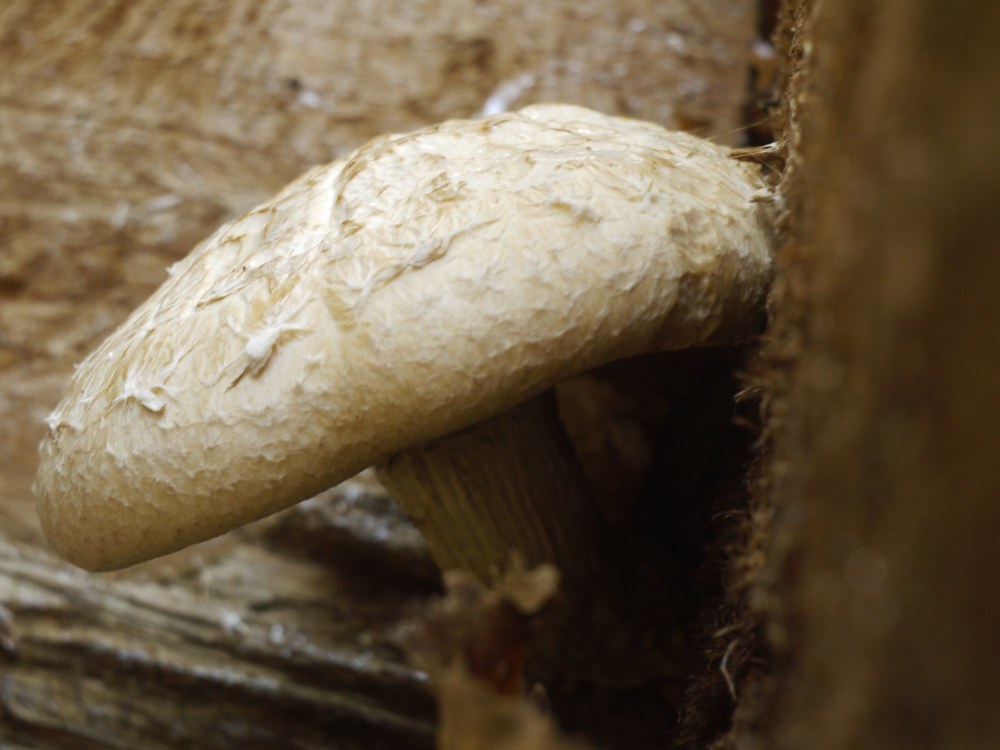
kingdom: Fungi
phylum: Basidiomycota
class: Agaricomycetes
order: Agaricales
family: Strophariaceae
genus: Pholiota
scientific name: Pholiota populnea
